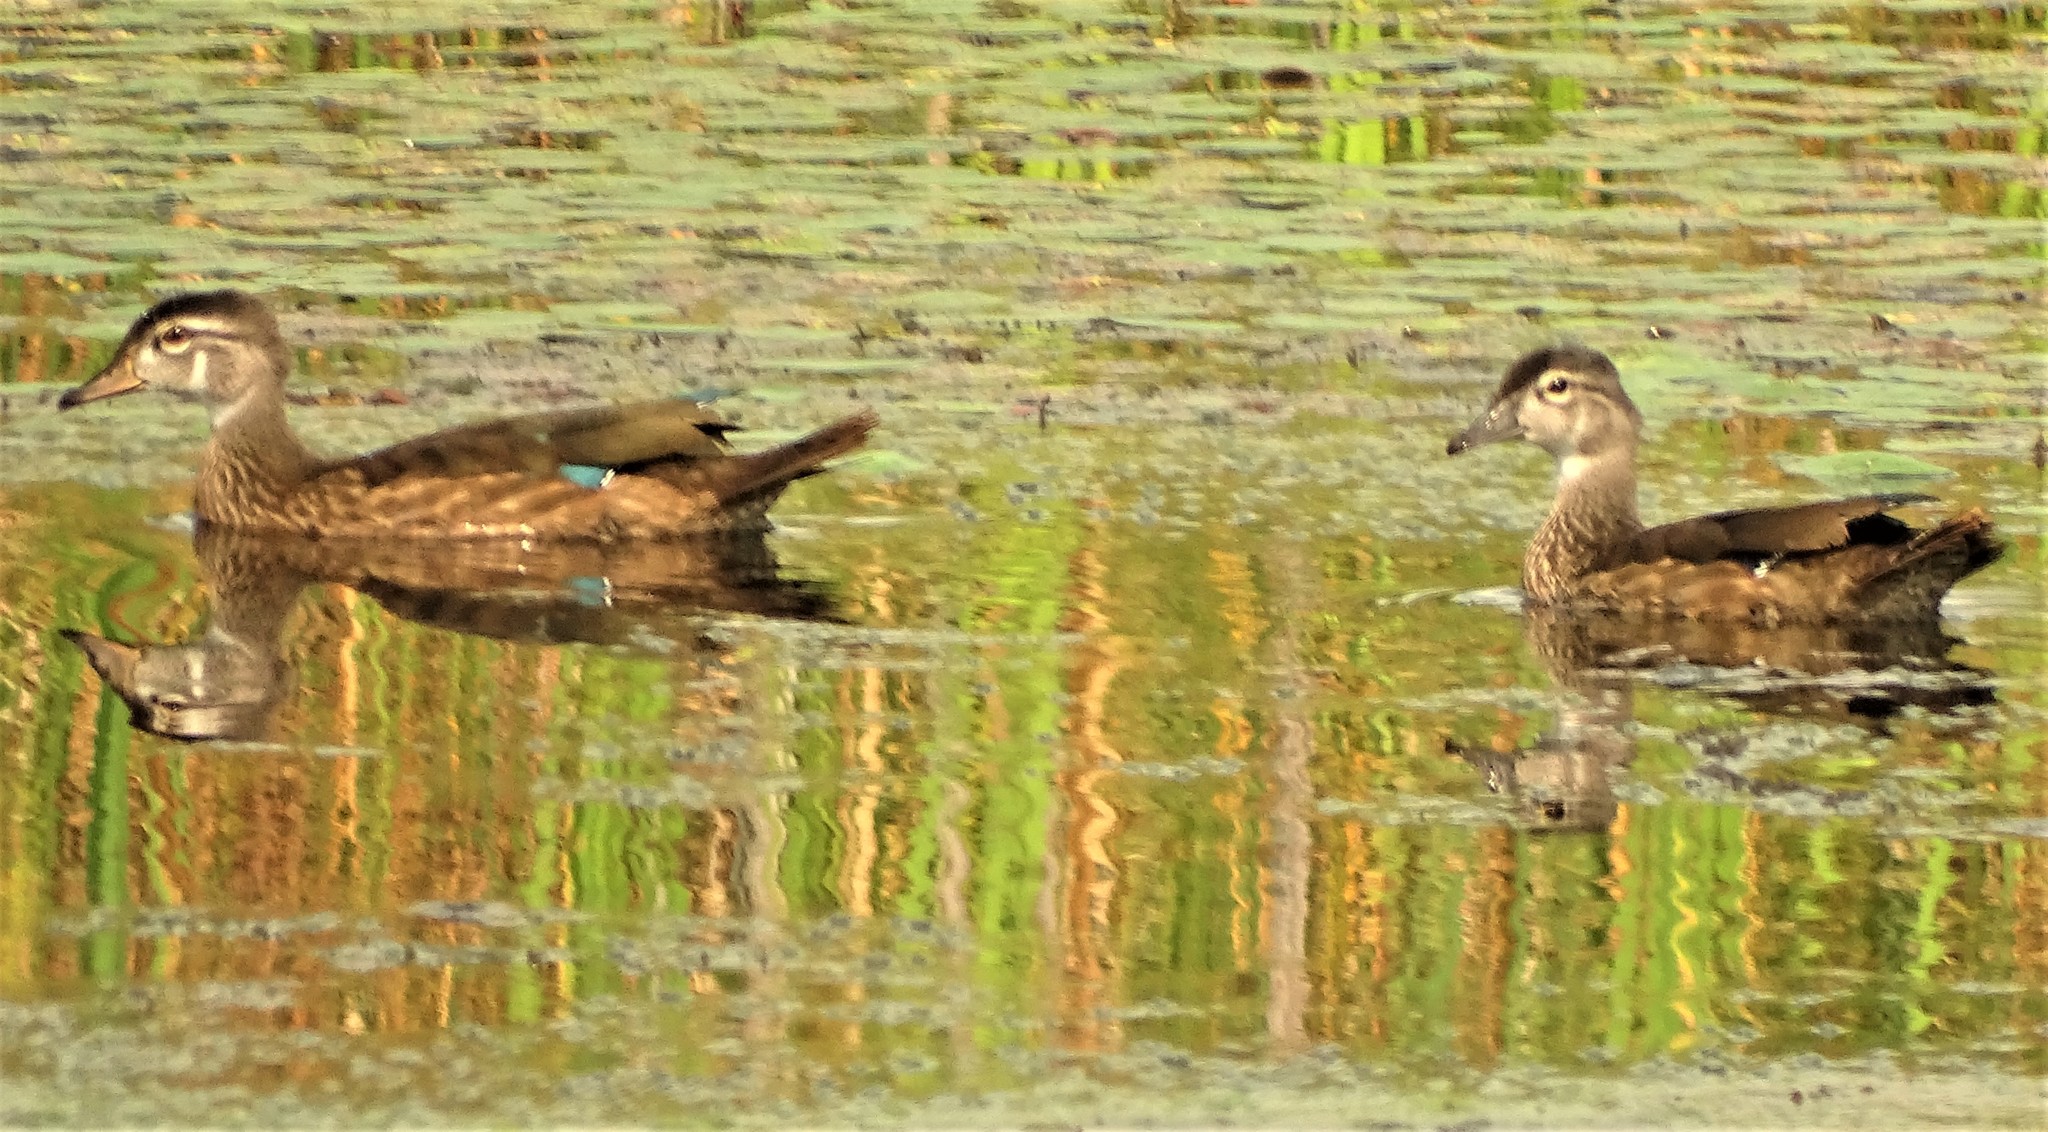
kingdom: Animalia
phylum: Chordata
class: Aves
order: Anseriformes
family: Anatidae
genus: Aix
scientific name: Aix sponsa
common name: Wood duck
